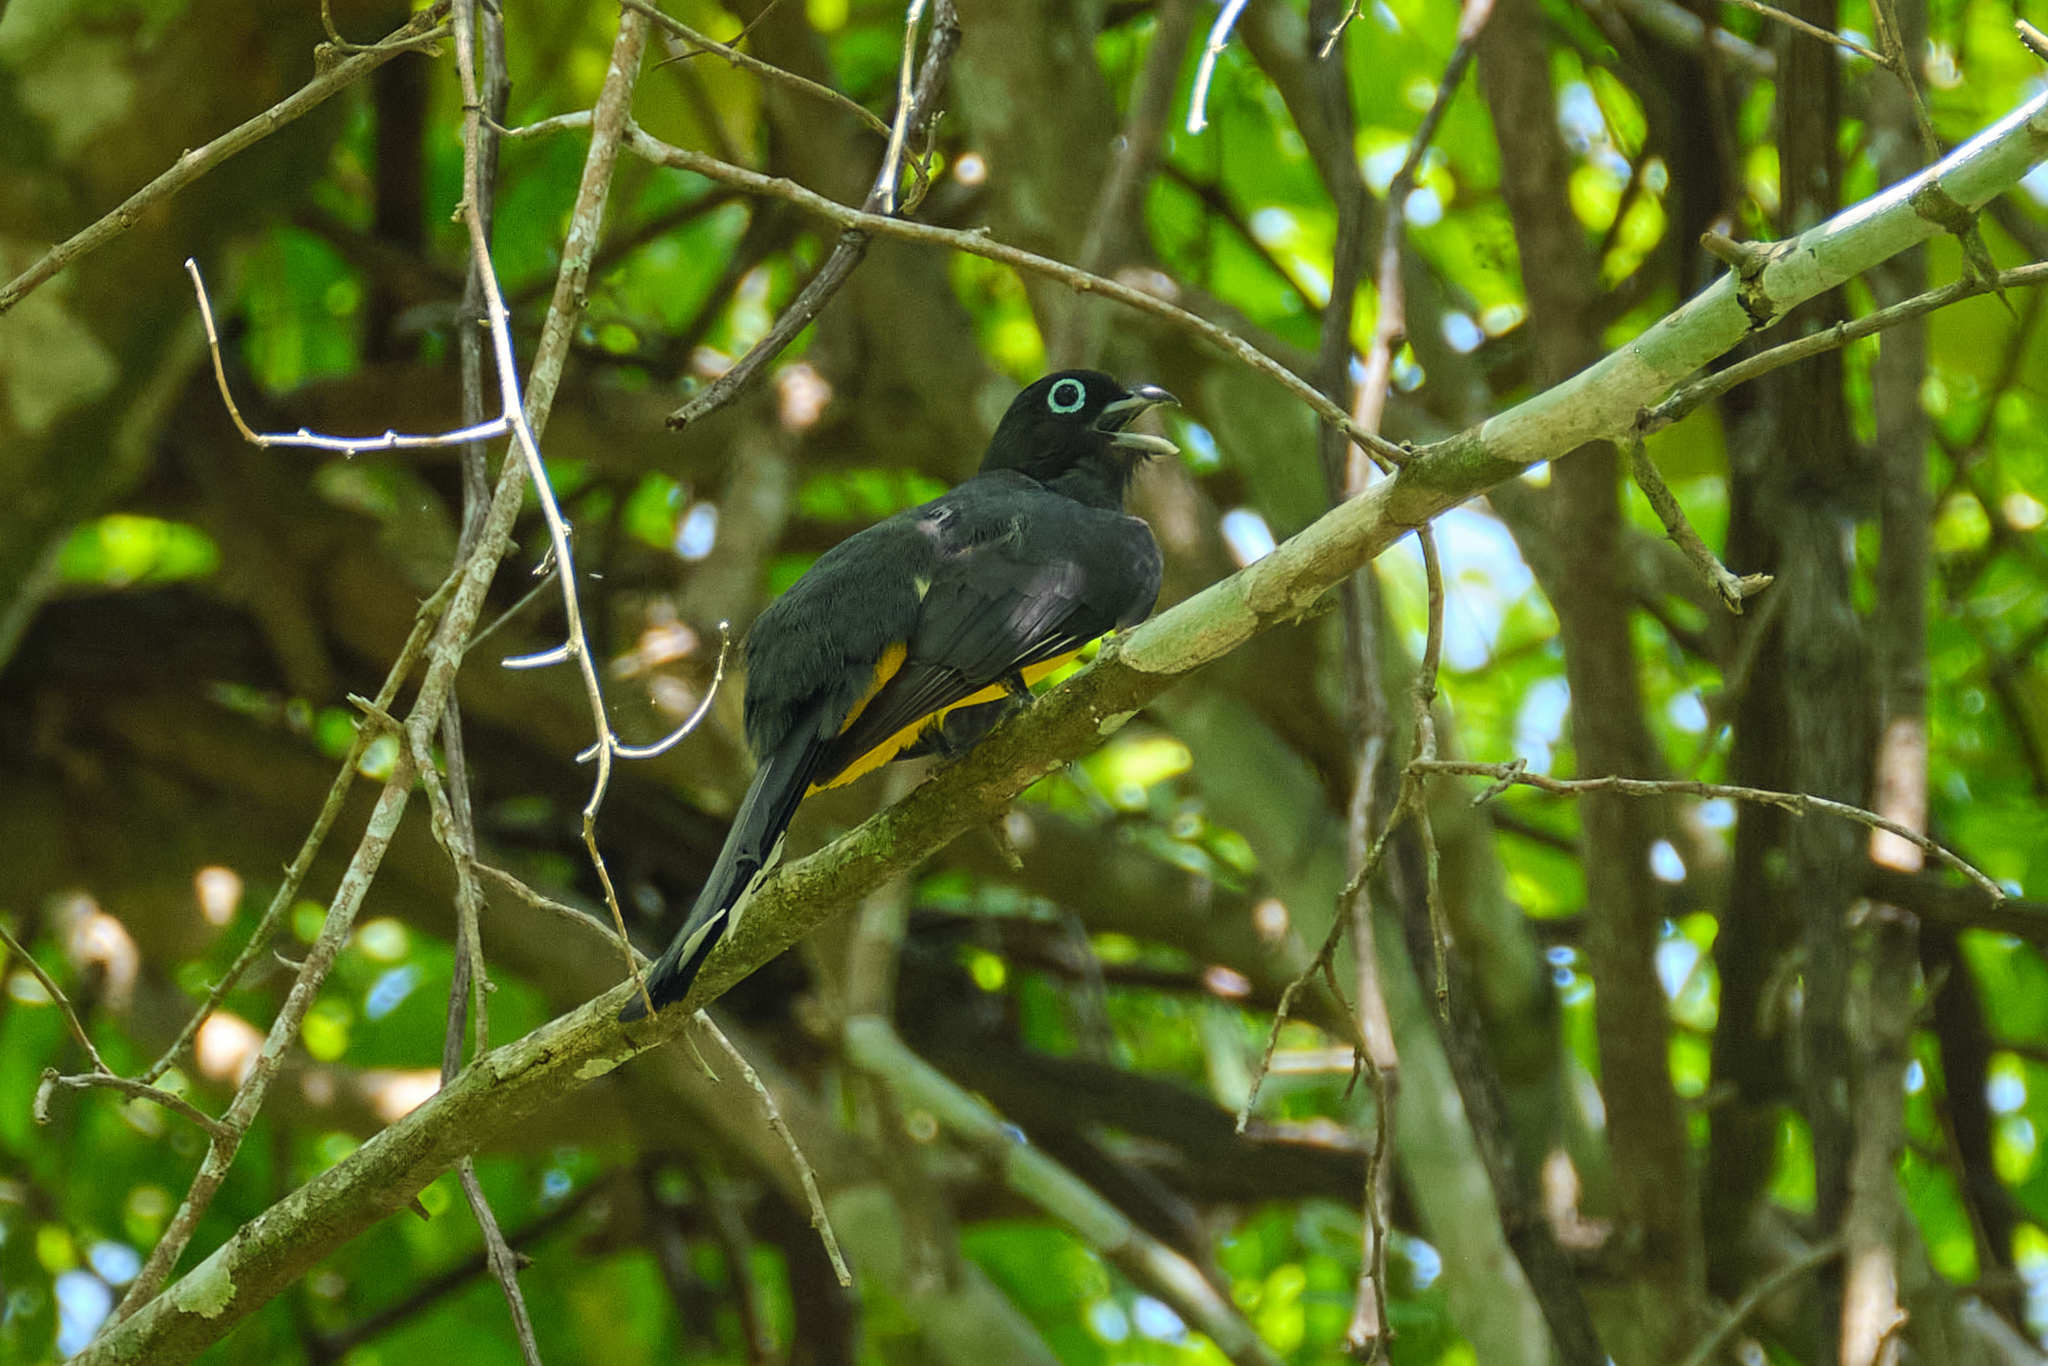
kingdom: Animalia
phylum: Chordata
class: Aves
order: Trogoniformes
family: Trogonidae
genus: Trogon
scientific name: Trogon melanocephalus
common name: Black-headed trogon
